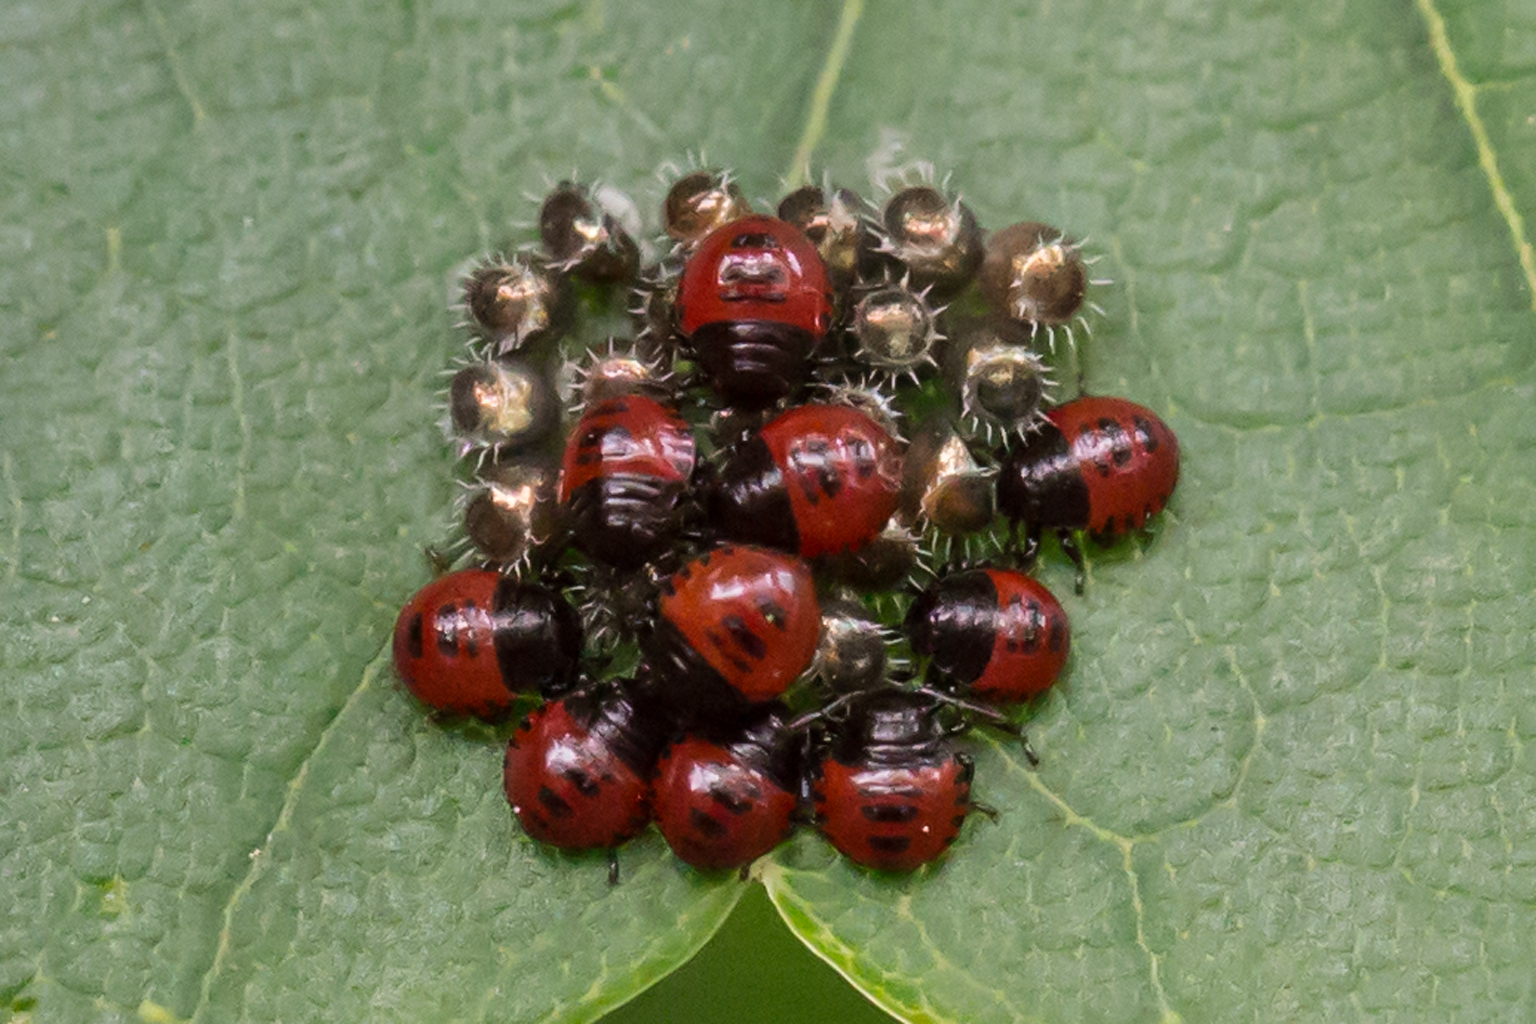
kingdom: Animalia
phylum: Arthropoda
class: Insecta
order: Hemiptera
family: Pentatomidae
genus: Podisus
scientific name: Podisus maculiventris
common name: Spined soldier bug
